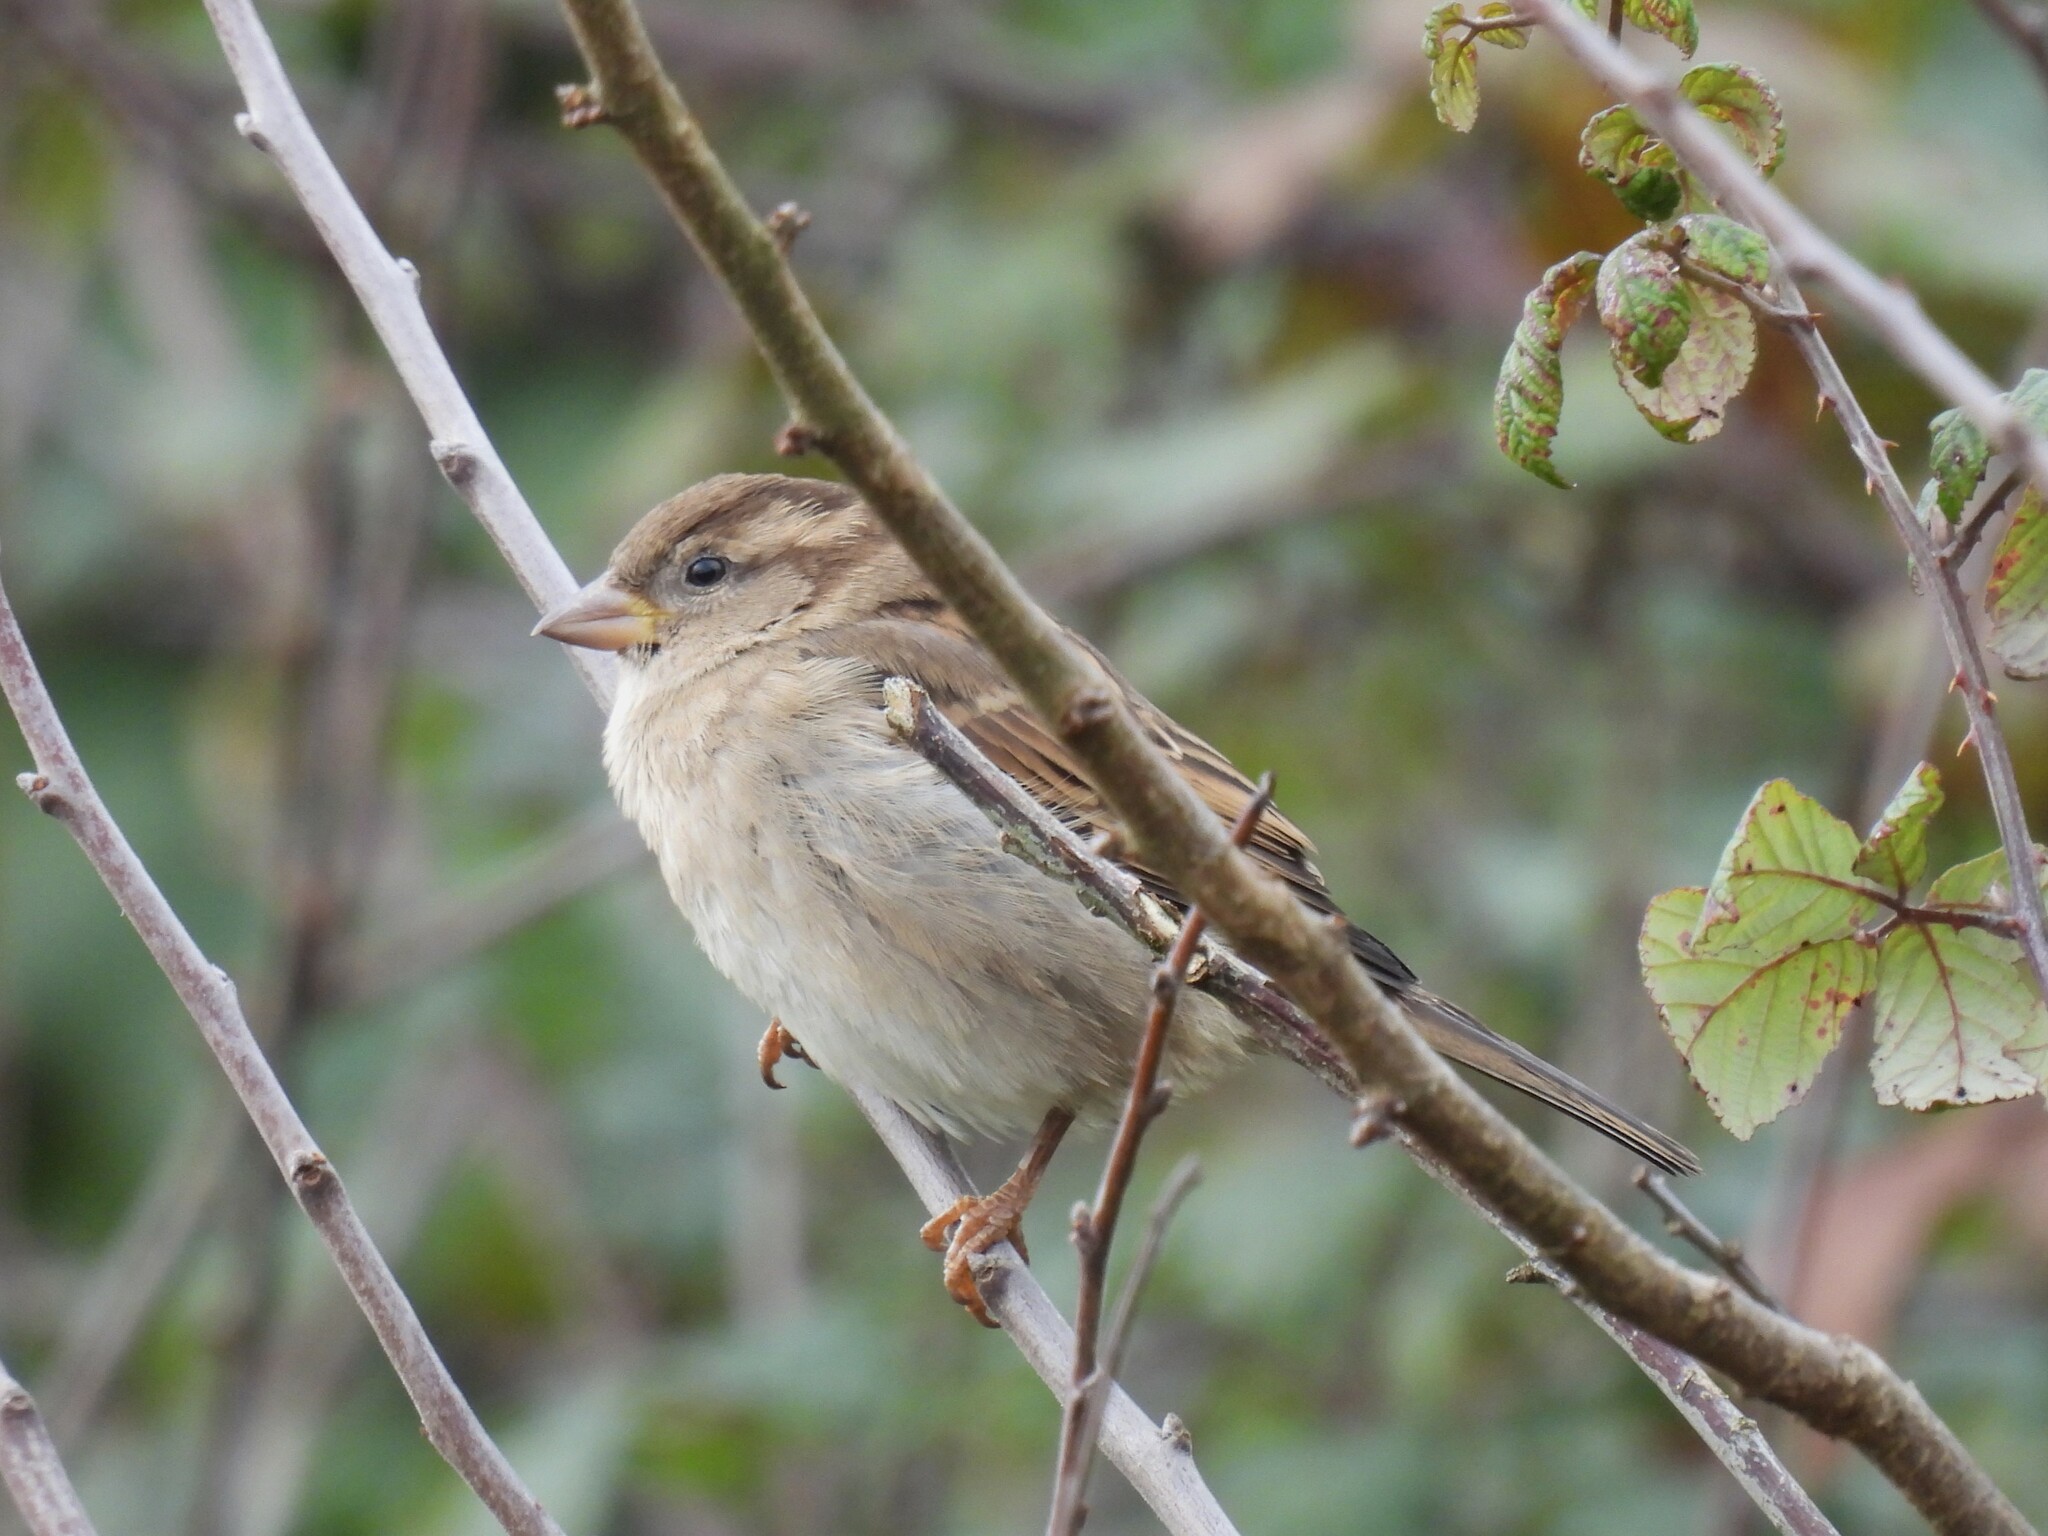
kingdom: Animalia
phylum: Chordata
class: Aves
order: Passeriformes
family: Passeridae
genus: Passer
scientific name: Passer domesticus
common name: House sparrow
